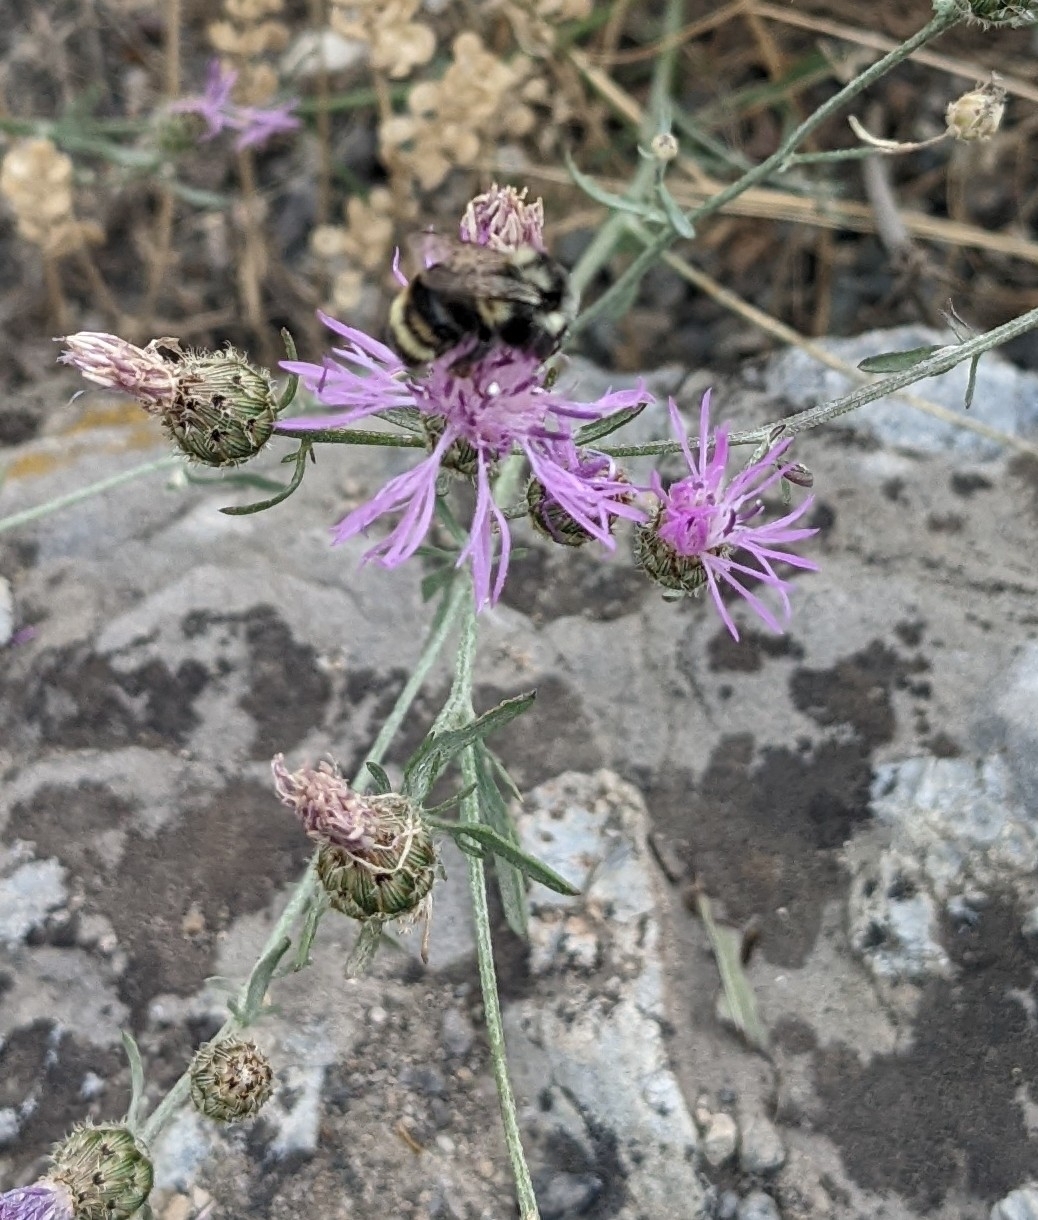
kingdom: Animalia
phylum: Arthropoda
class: Insecta
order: Hymenoptera
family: Apidae
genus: Bombus
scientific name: Bombus vancouverensis
